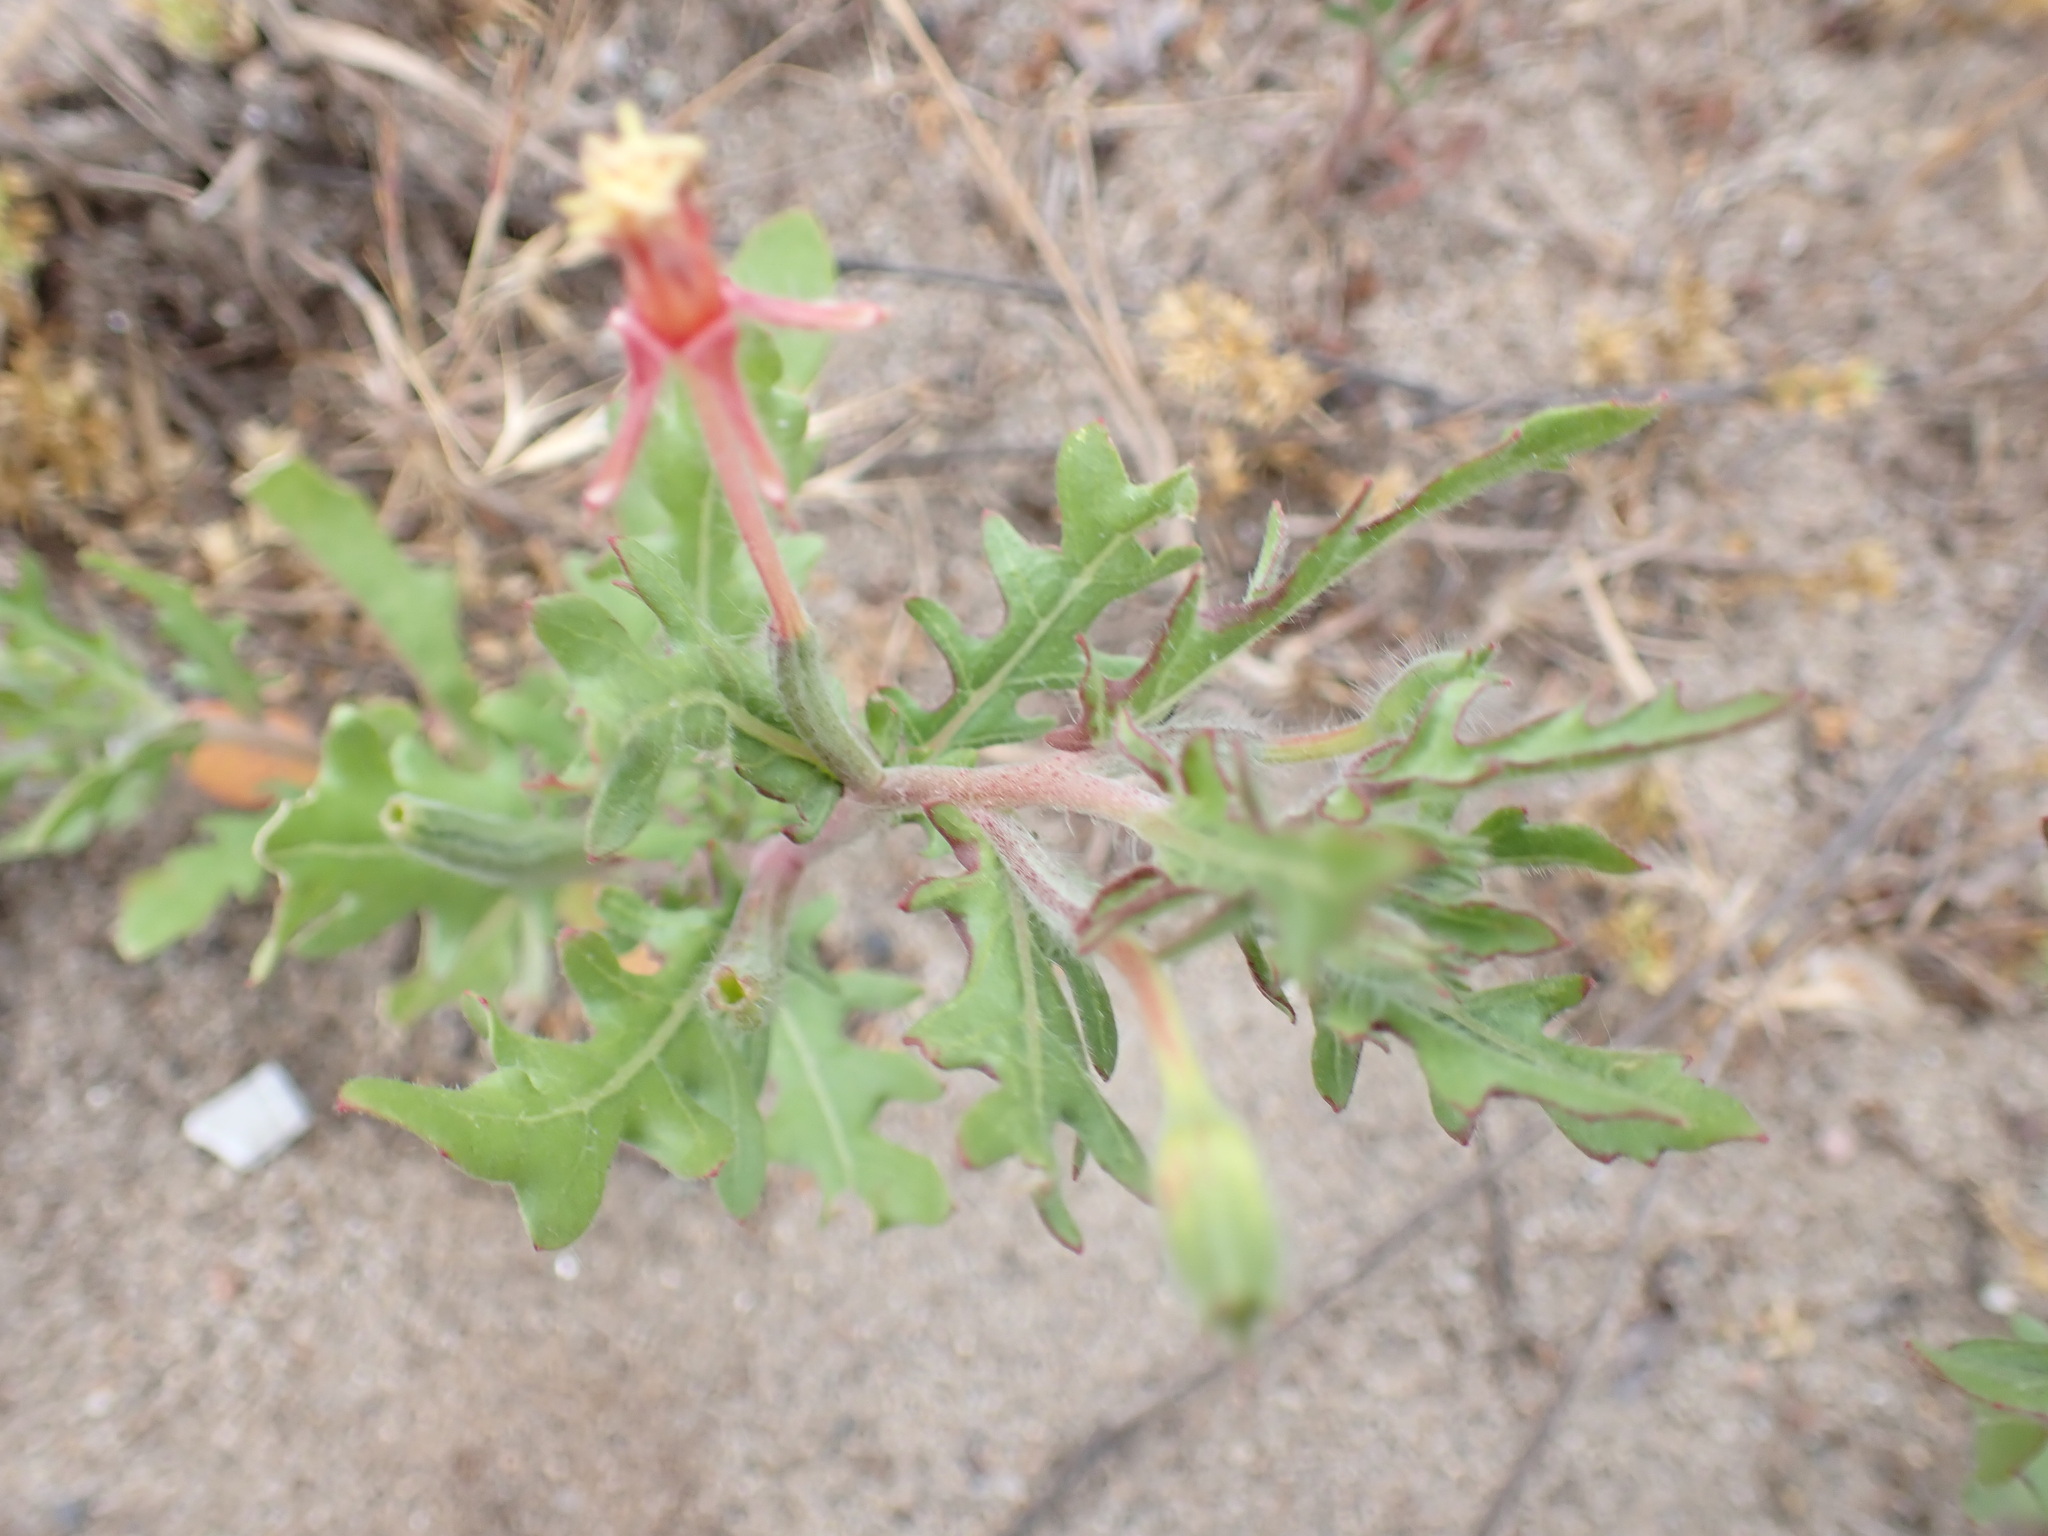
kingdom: Plantae
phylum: Tracheophyta
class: Magnoliopsida
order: Myrtales
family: Onagraceae
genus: Oenothera
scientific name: Oenothera laciniata
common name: Cut-leaved evening-primrose
